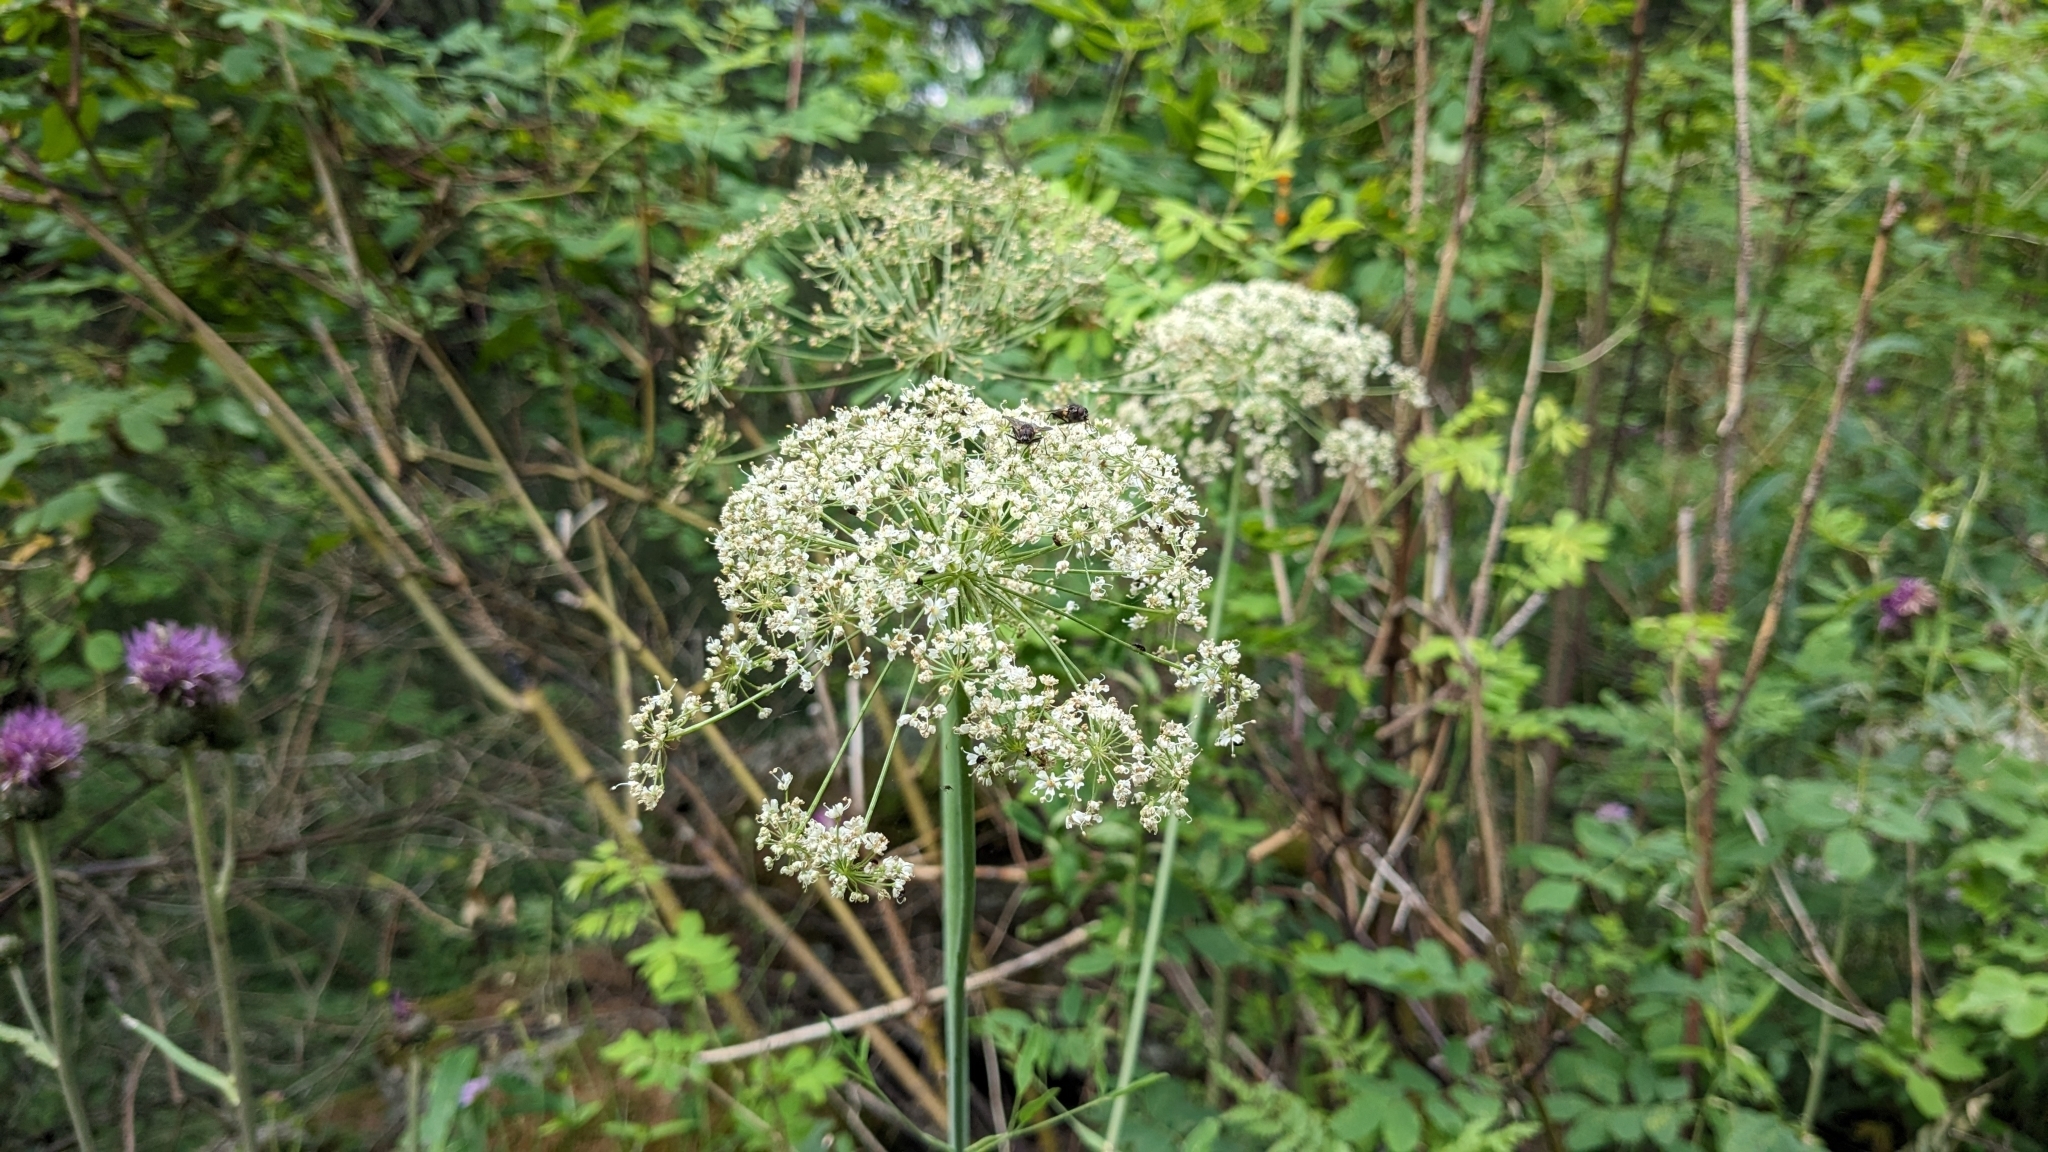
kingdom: Plantae
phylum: Tracheophyta
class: Magnoliopsida
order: Apiales
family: Apiaceae
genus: Laserpitium
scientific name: Laserpitium latifolium
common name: Broadleaf sermountain
